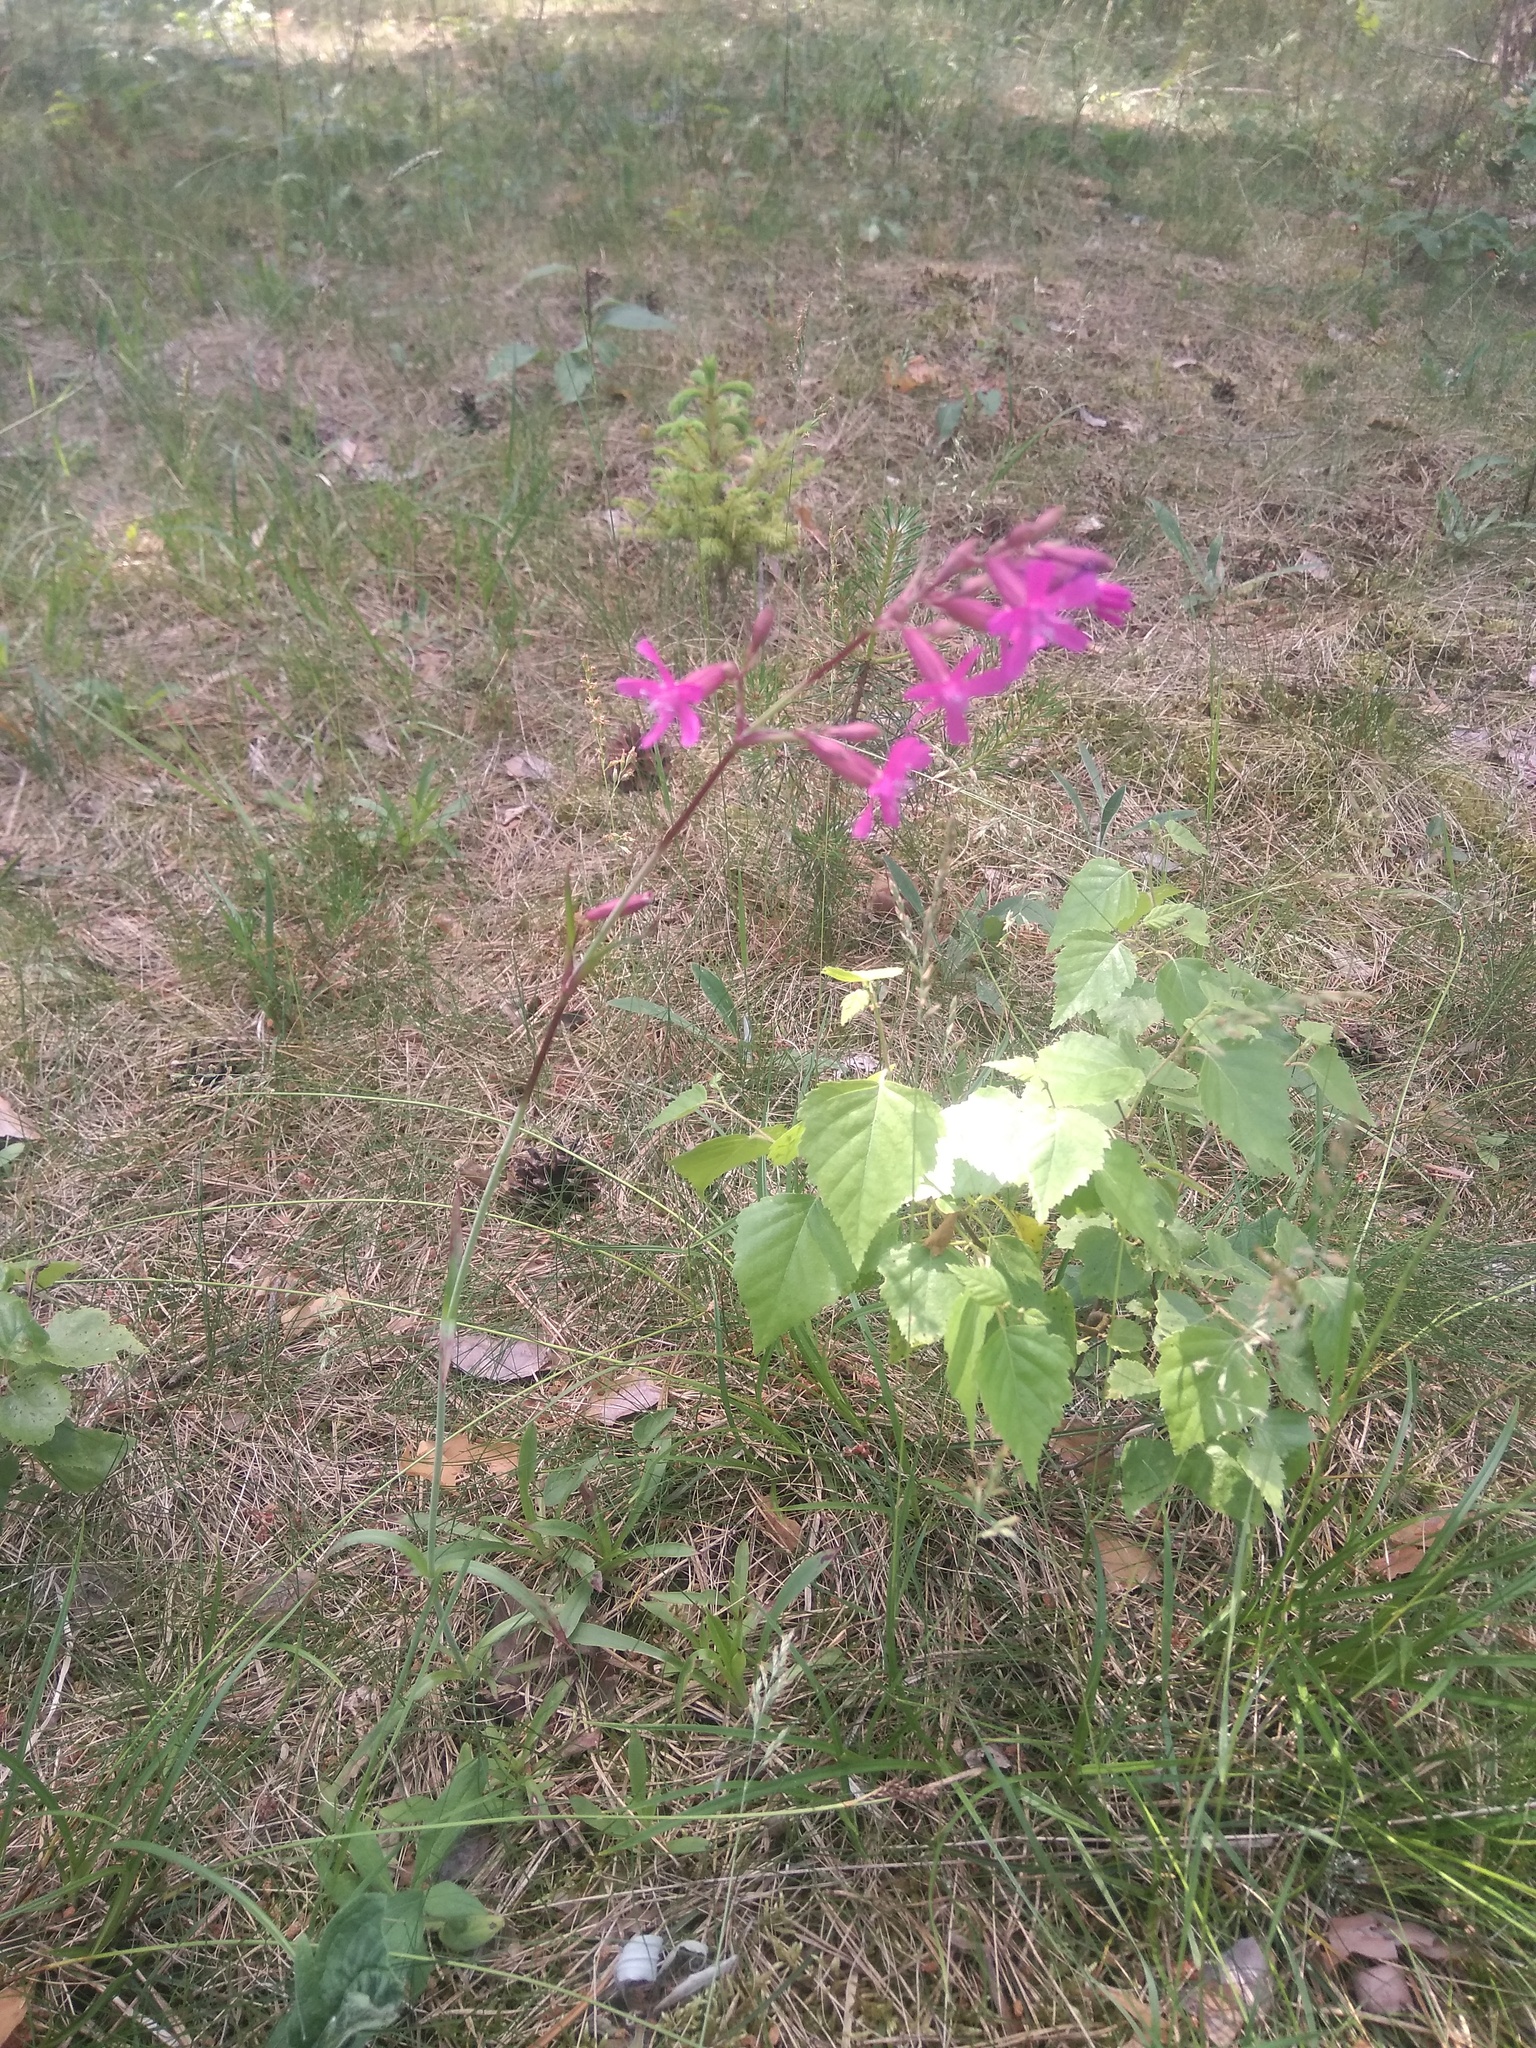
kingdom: Plantae
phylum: Tracheophyta
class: Magnoliopsida
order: Caryophyllales
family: Caryophyllaceae
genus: Viscaria
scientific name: Viscaria vulgaris
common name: Clammy campion
